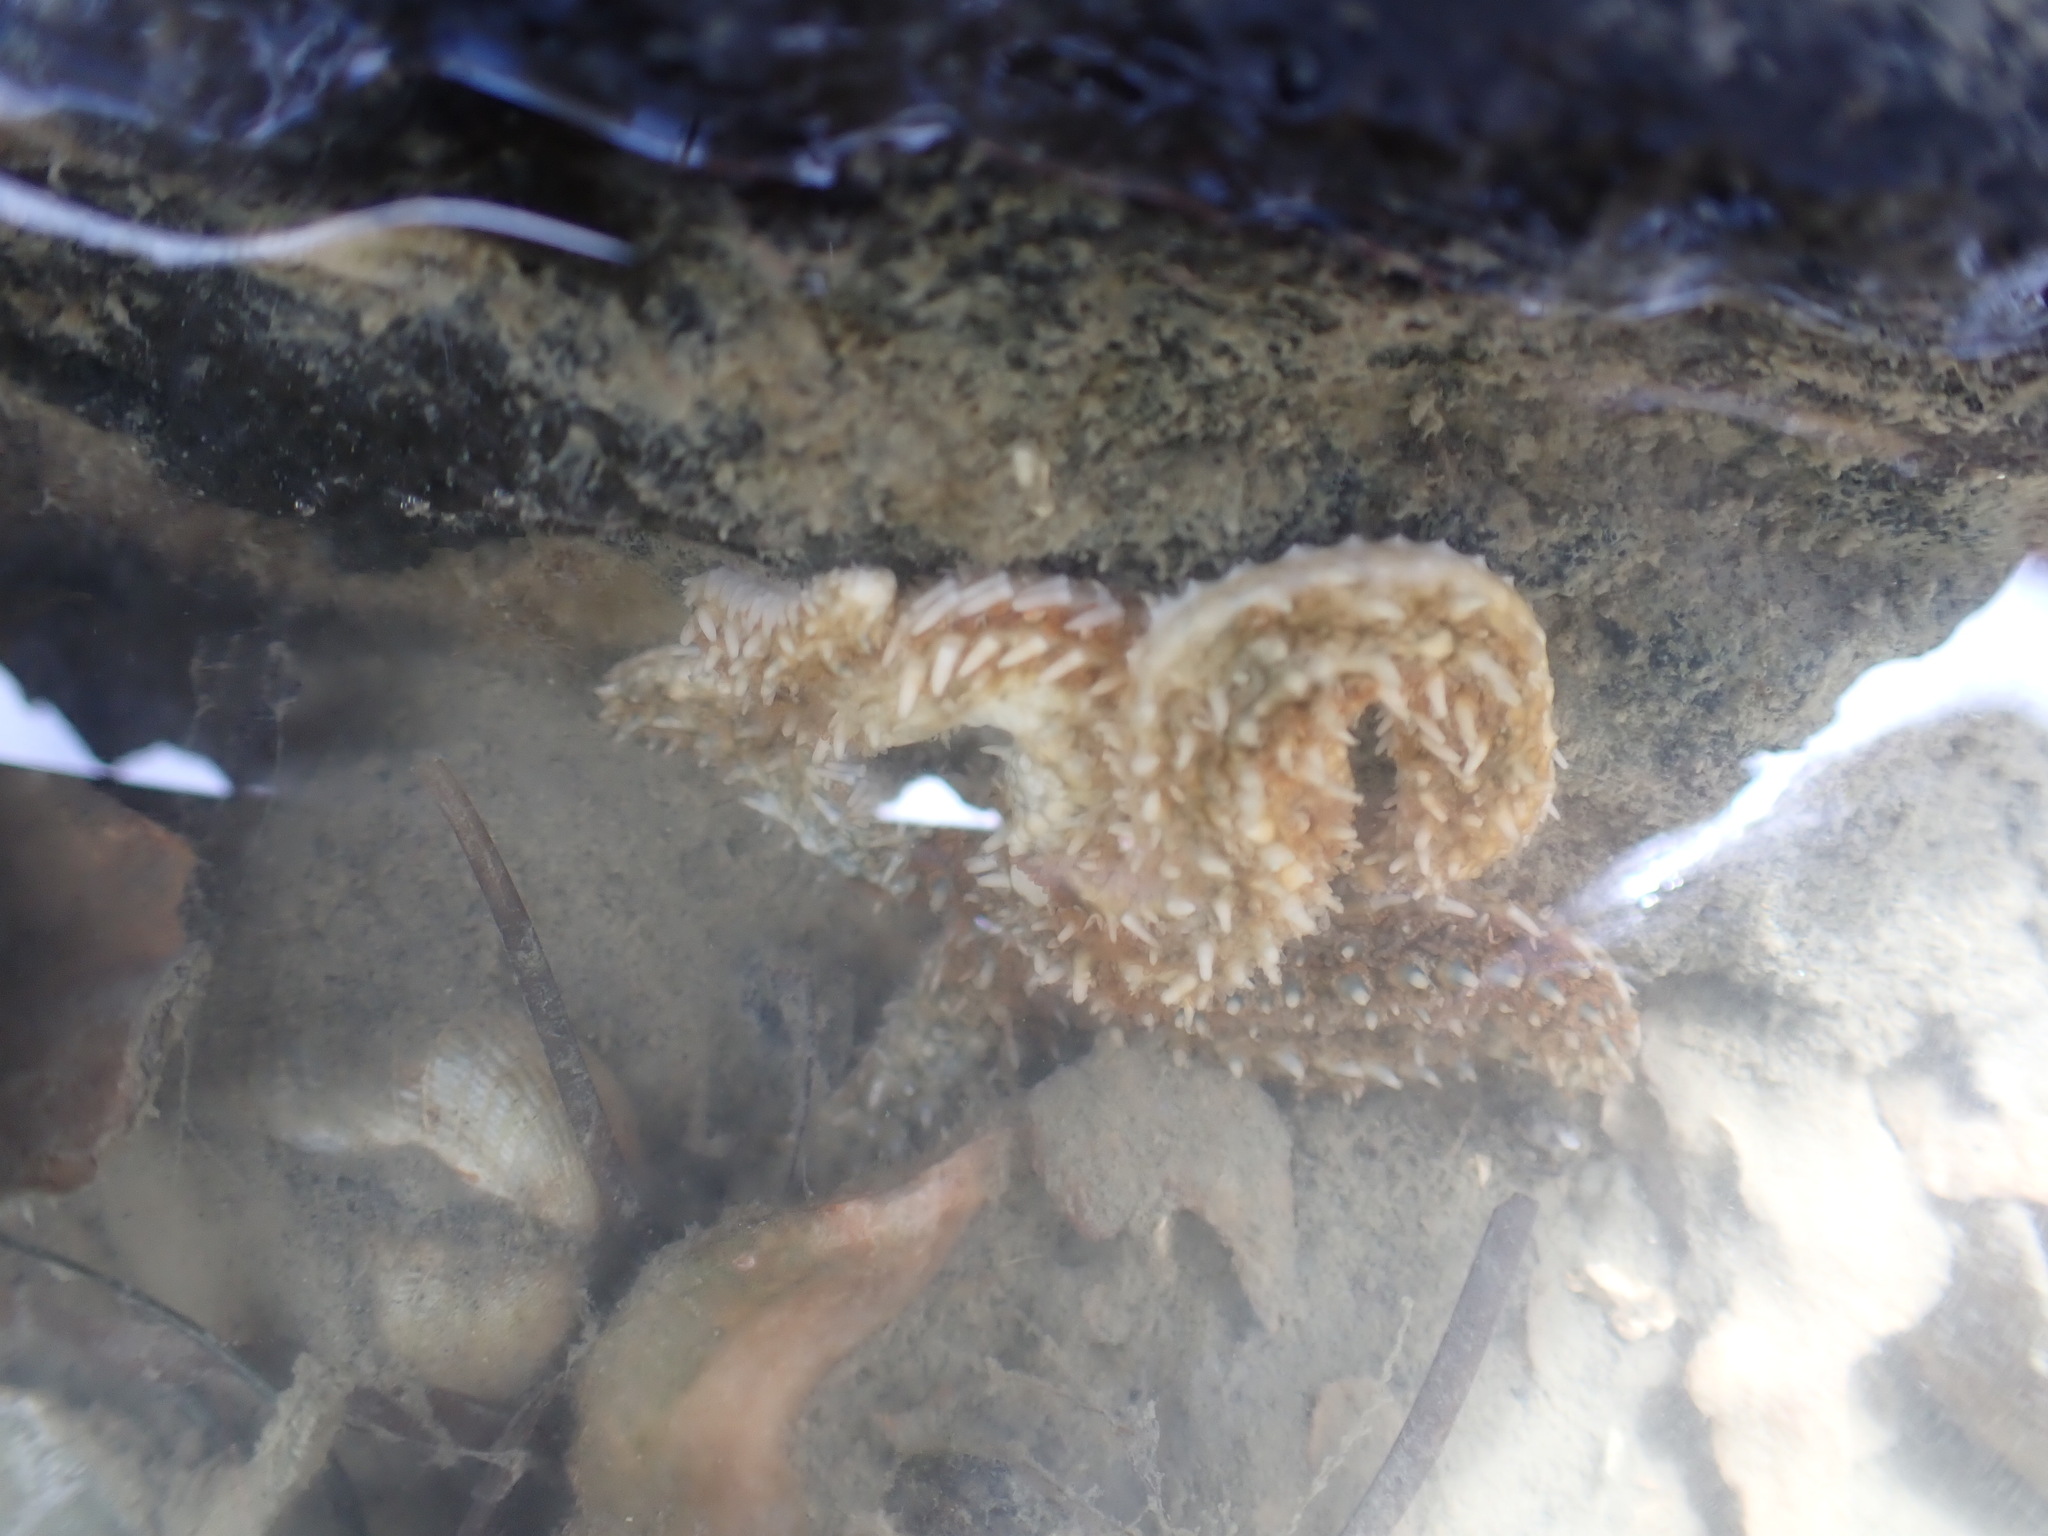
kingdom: Animalia
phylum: Echinodermata
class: Asteroidea
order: Forcipulatida
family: Asteriidae
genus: Coscinasterias
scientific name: Coscinasterias muricata
